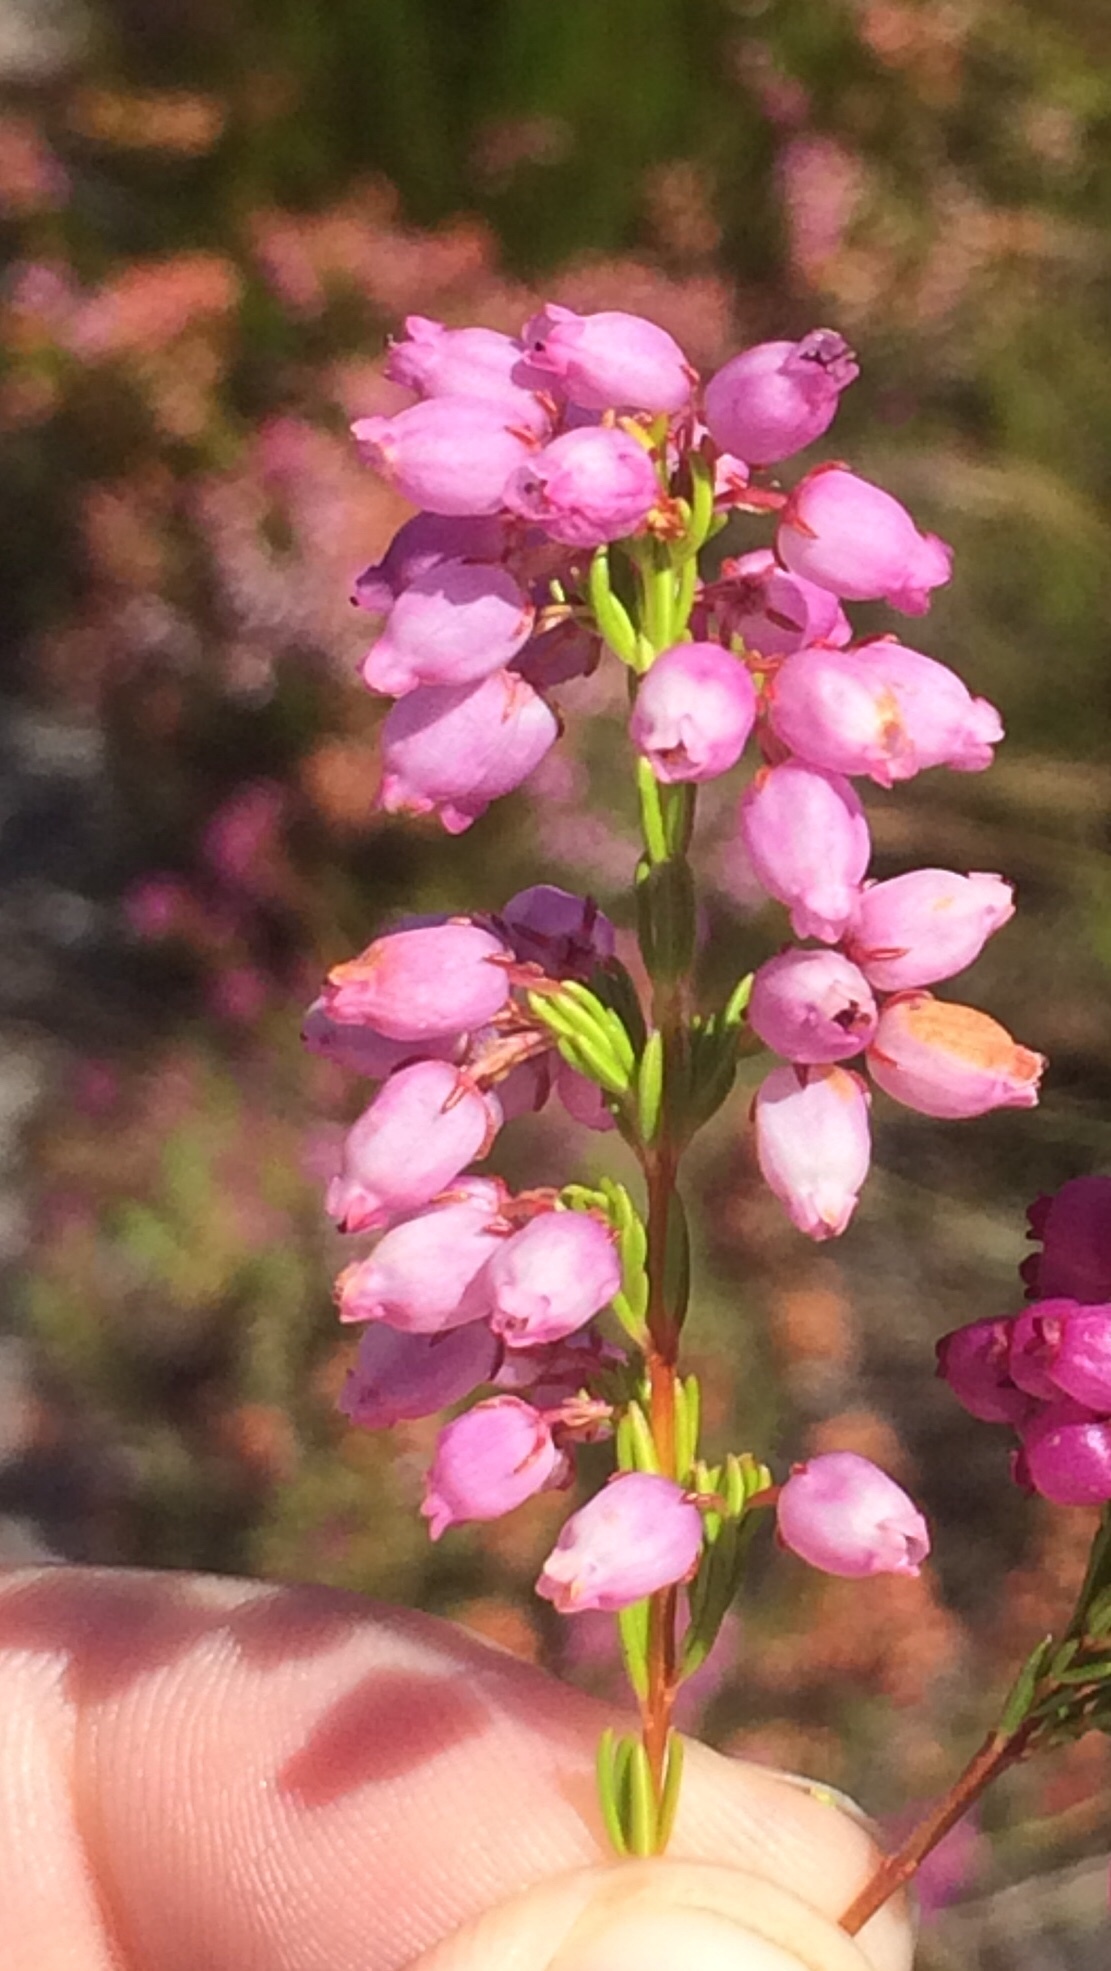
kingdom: Plantae
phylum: Tracheophyta
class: Magnoliopsida
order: Ericales
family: Ericaceae
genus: Erica
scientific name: Erica laeta
